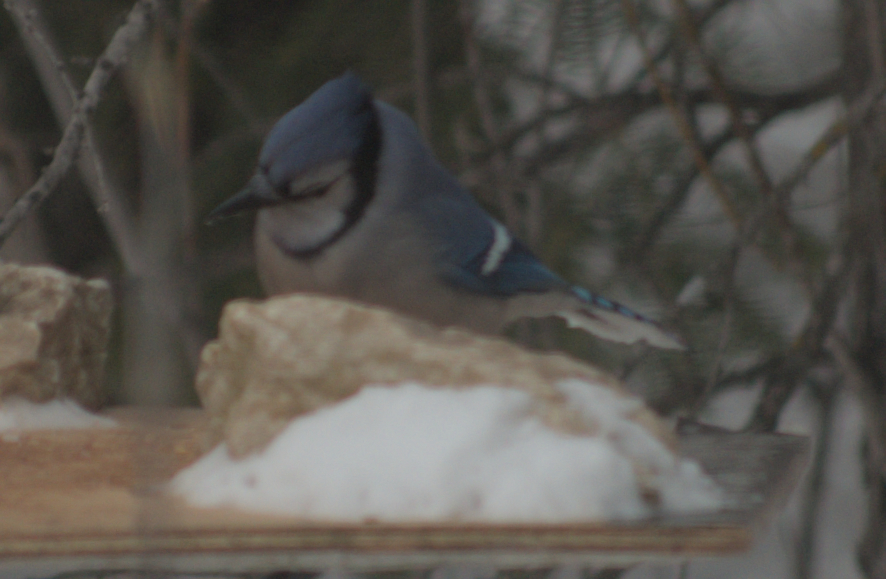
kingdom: Animalia
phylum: Chordata
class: Aves
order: Passeriformes
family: Corvidae
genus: Cyanocitta
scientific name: Cyanocitta cristata
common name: Blue jay
